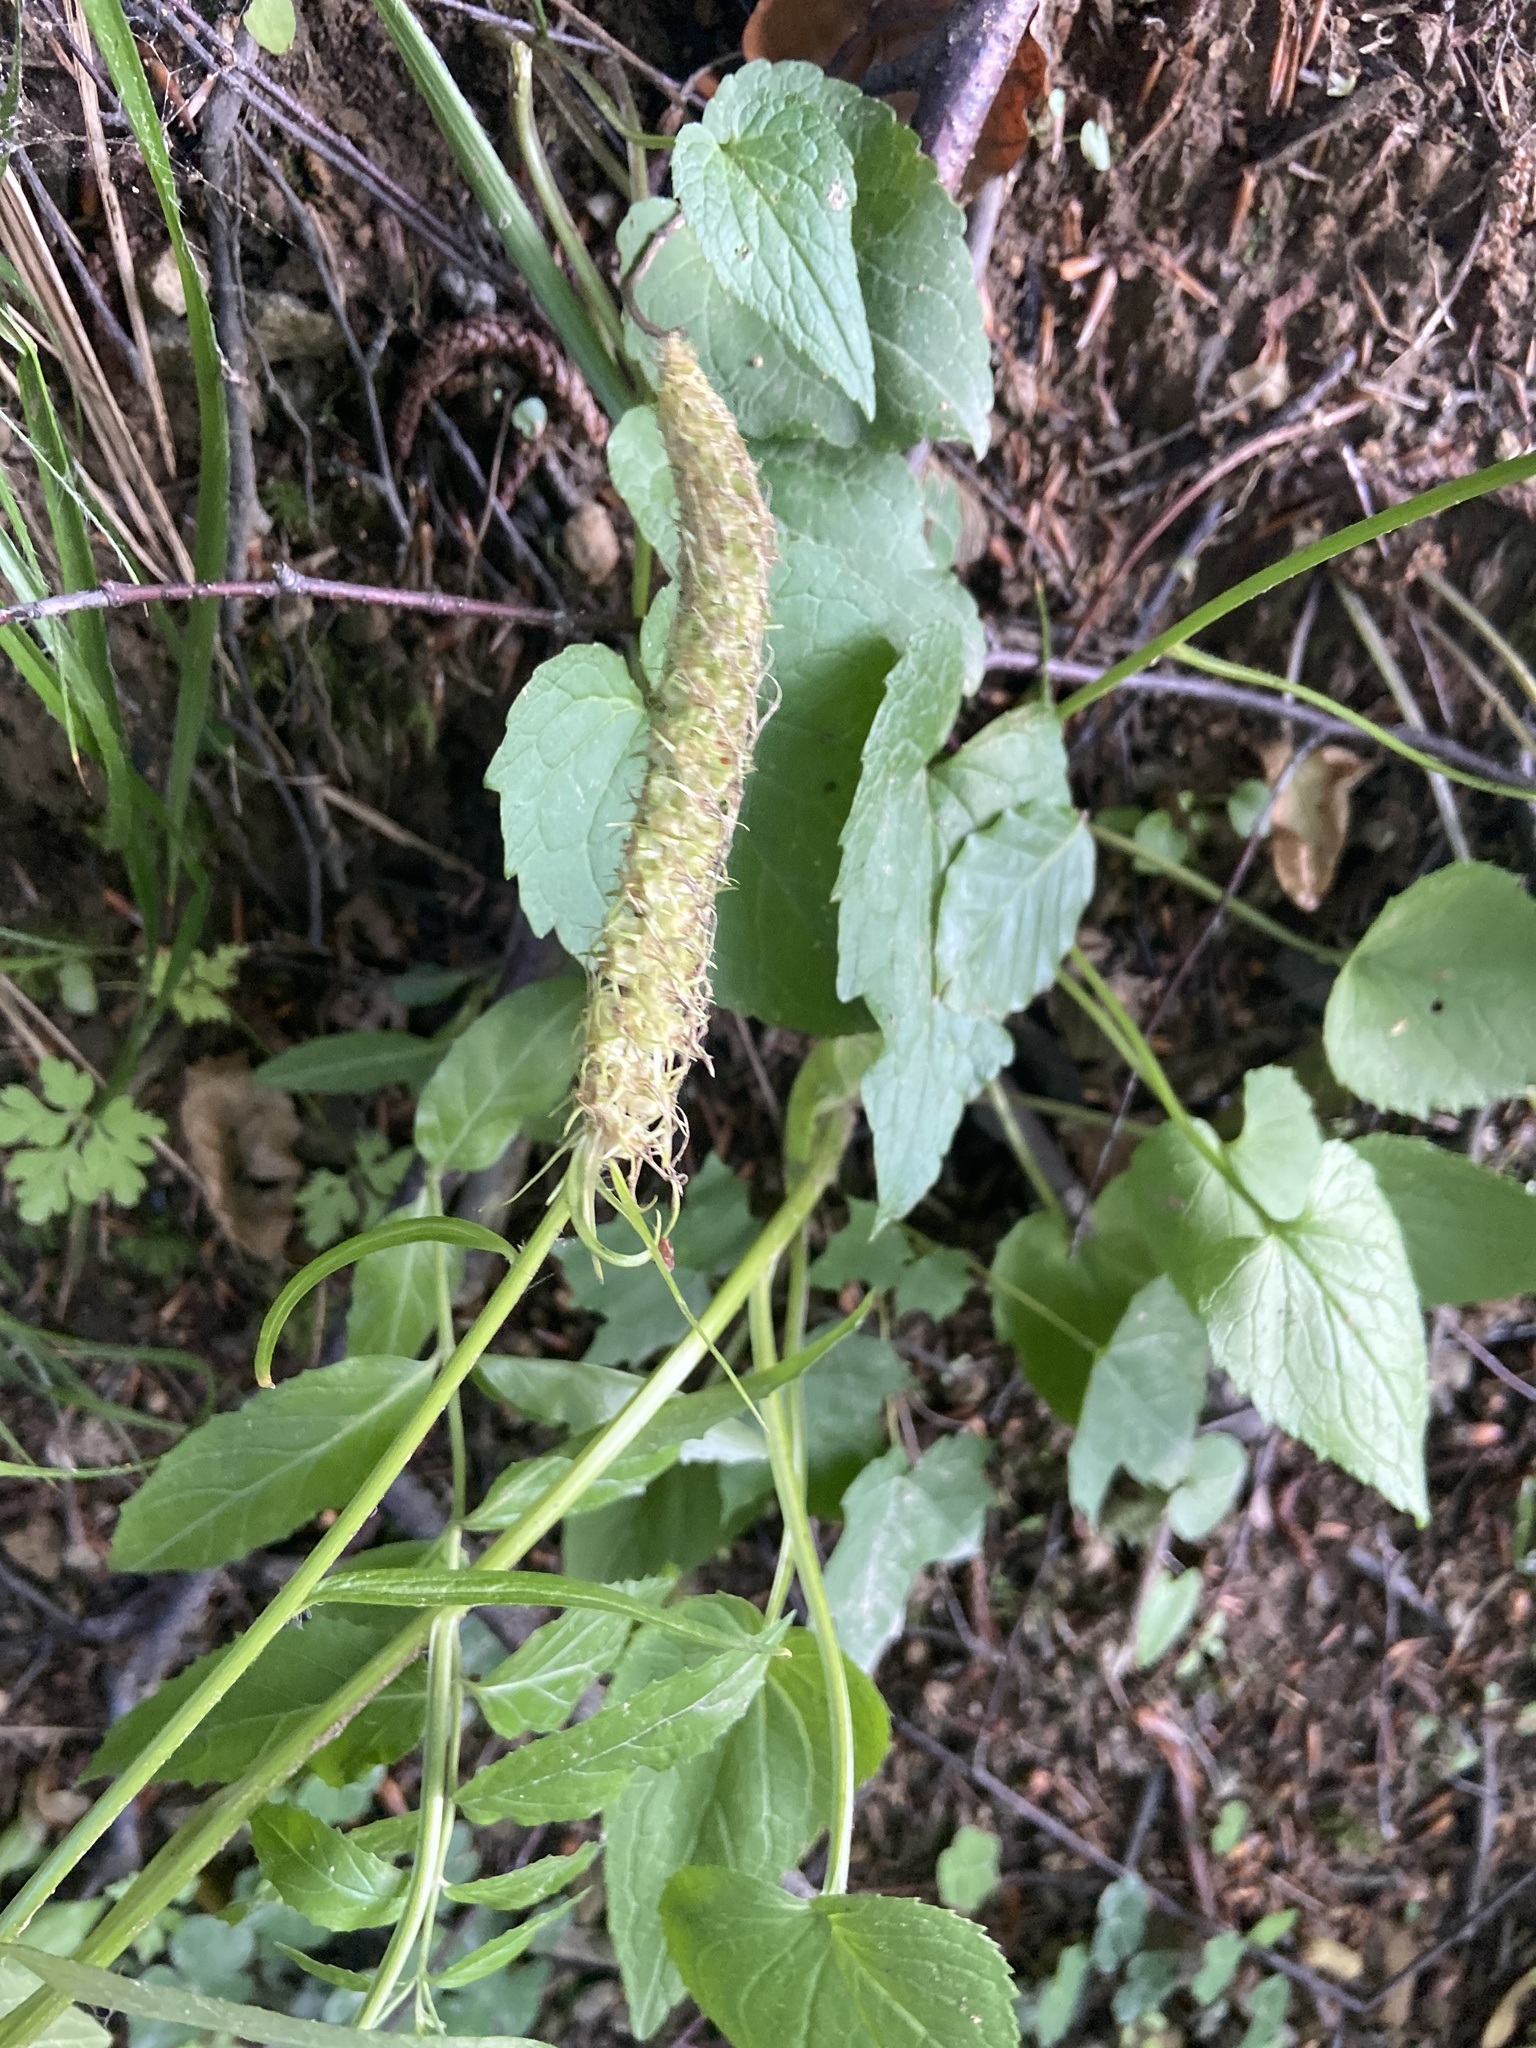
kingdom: Plantae
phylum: Tracheophyta
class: Magnoliopsida
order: Asterales
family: Campanulaceae
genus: Phyteuma
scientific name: Phyteuma spicatum
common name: Spiked rampion
